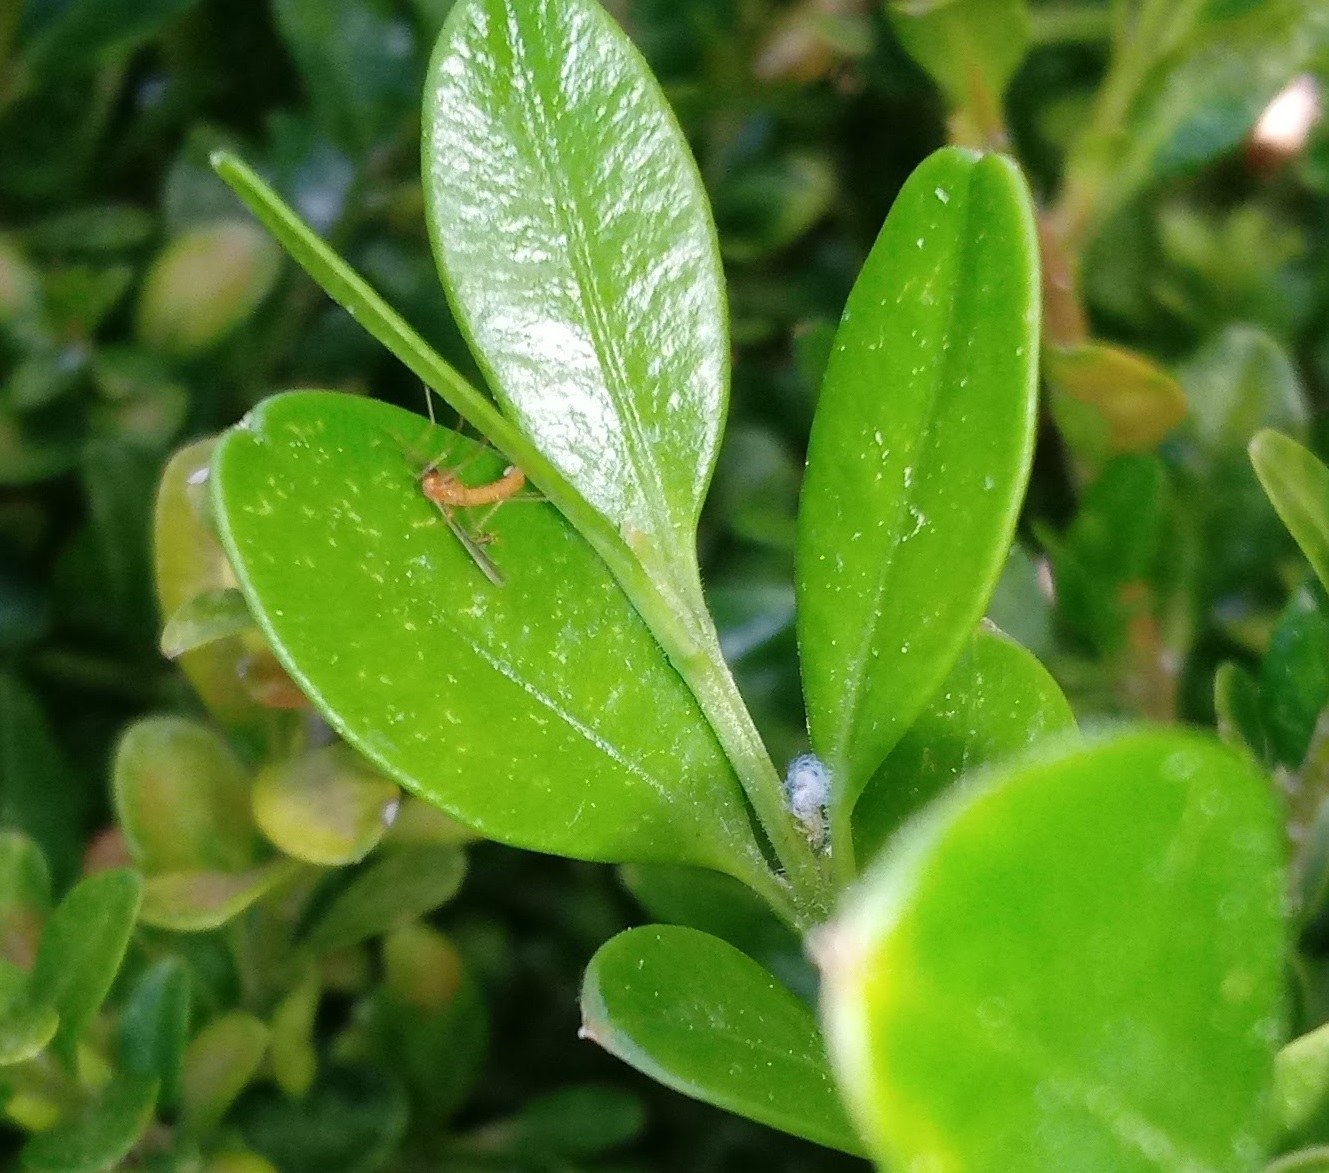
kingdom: Animalia
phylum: Arthropoda
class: Insecta
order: Hemiptera
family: Psyllidae
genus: Psylla
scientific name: Psylla buxi
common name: Boxwood psyllid
